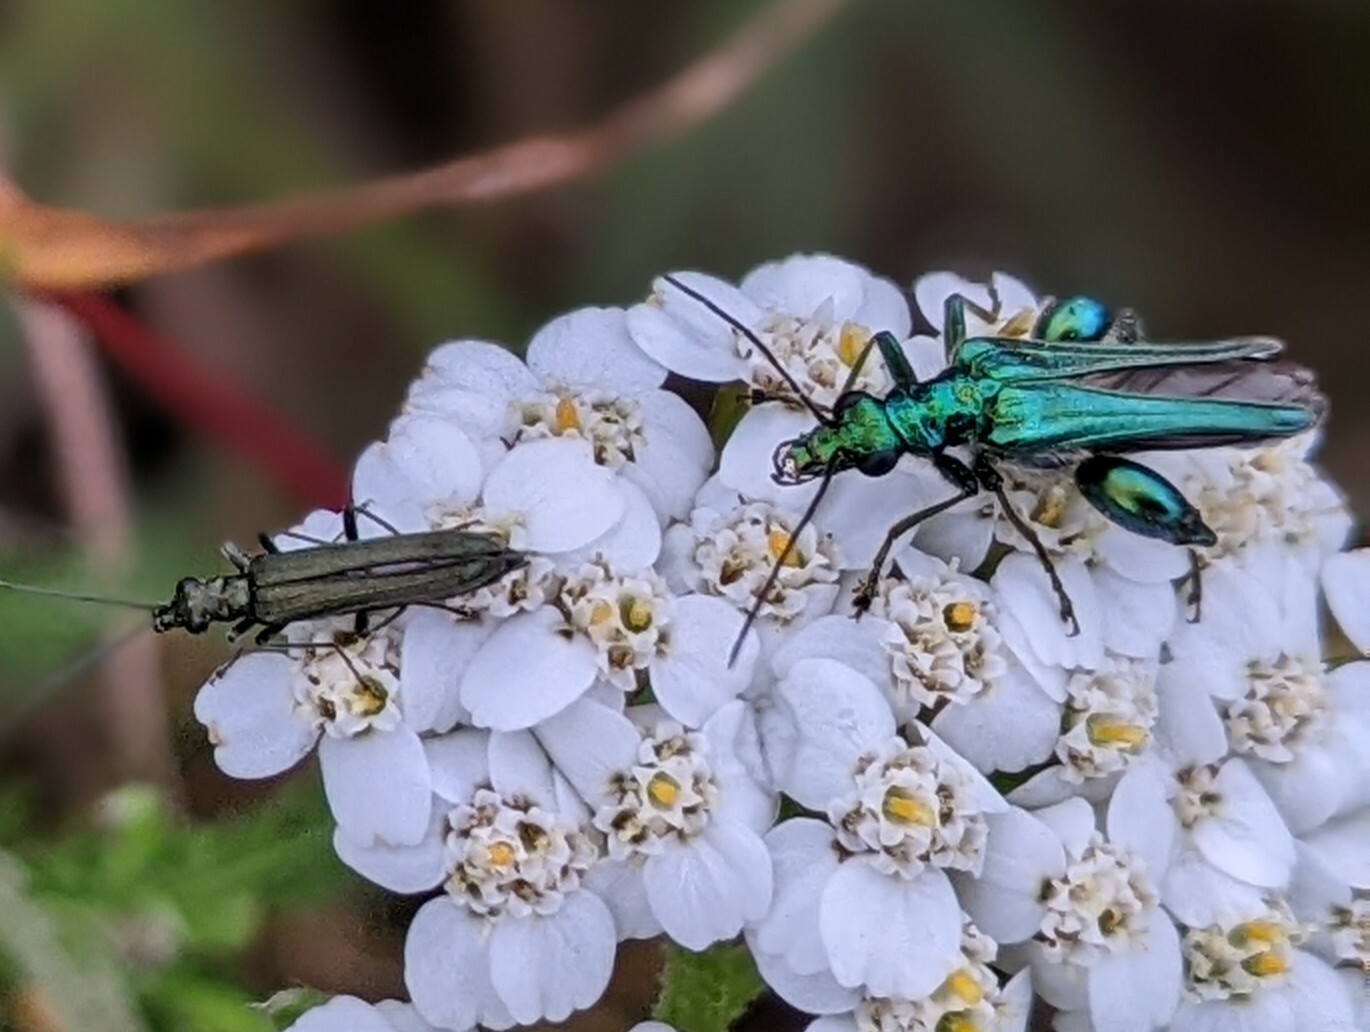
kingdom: Animalia
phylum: Arthropoda
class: Insecta
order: Coleoptera
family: Oedemeridae
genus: Oedemera
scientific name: Oedemera nobilis
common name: Swollen-thighed beetle
